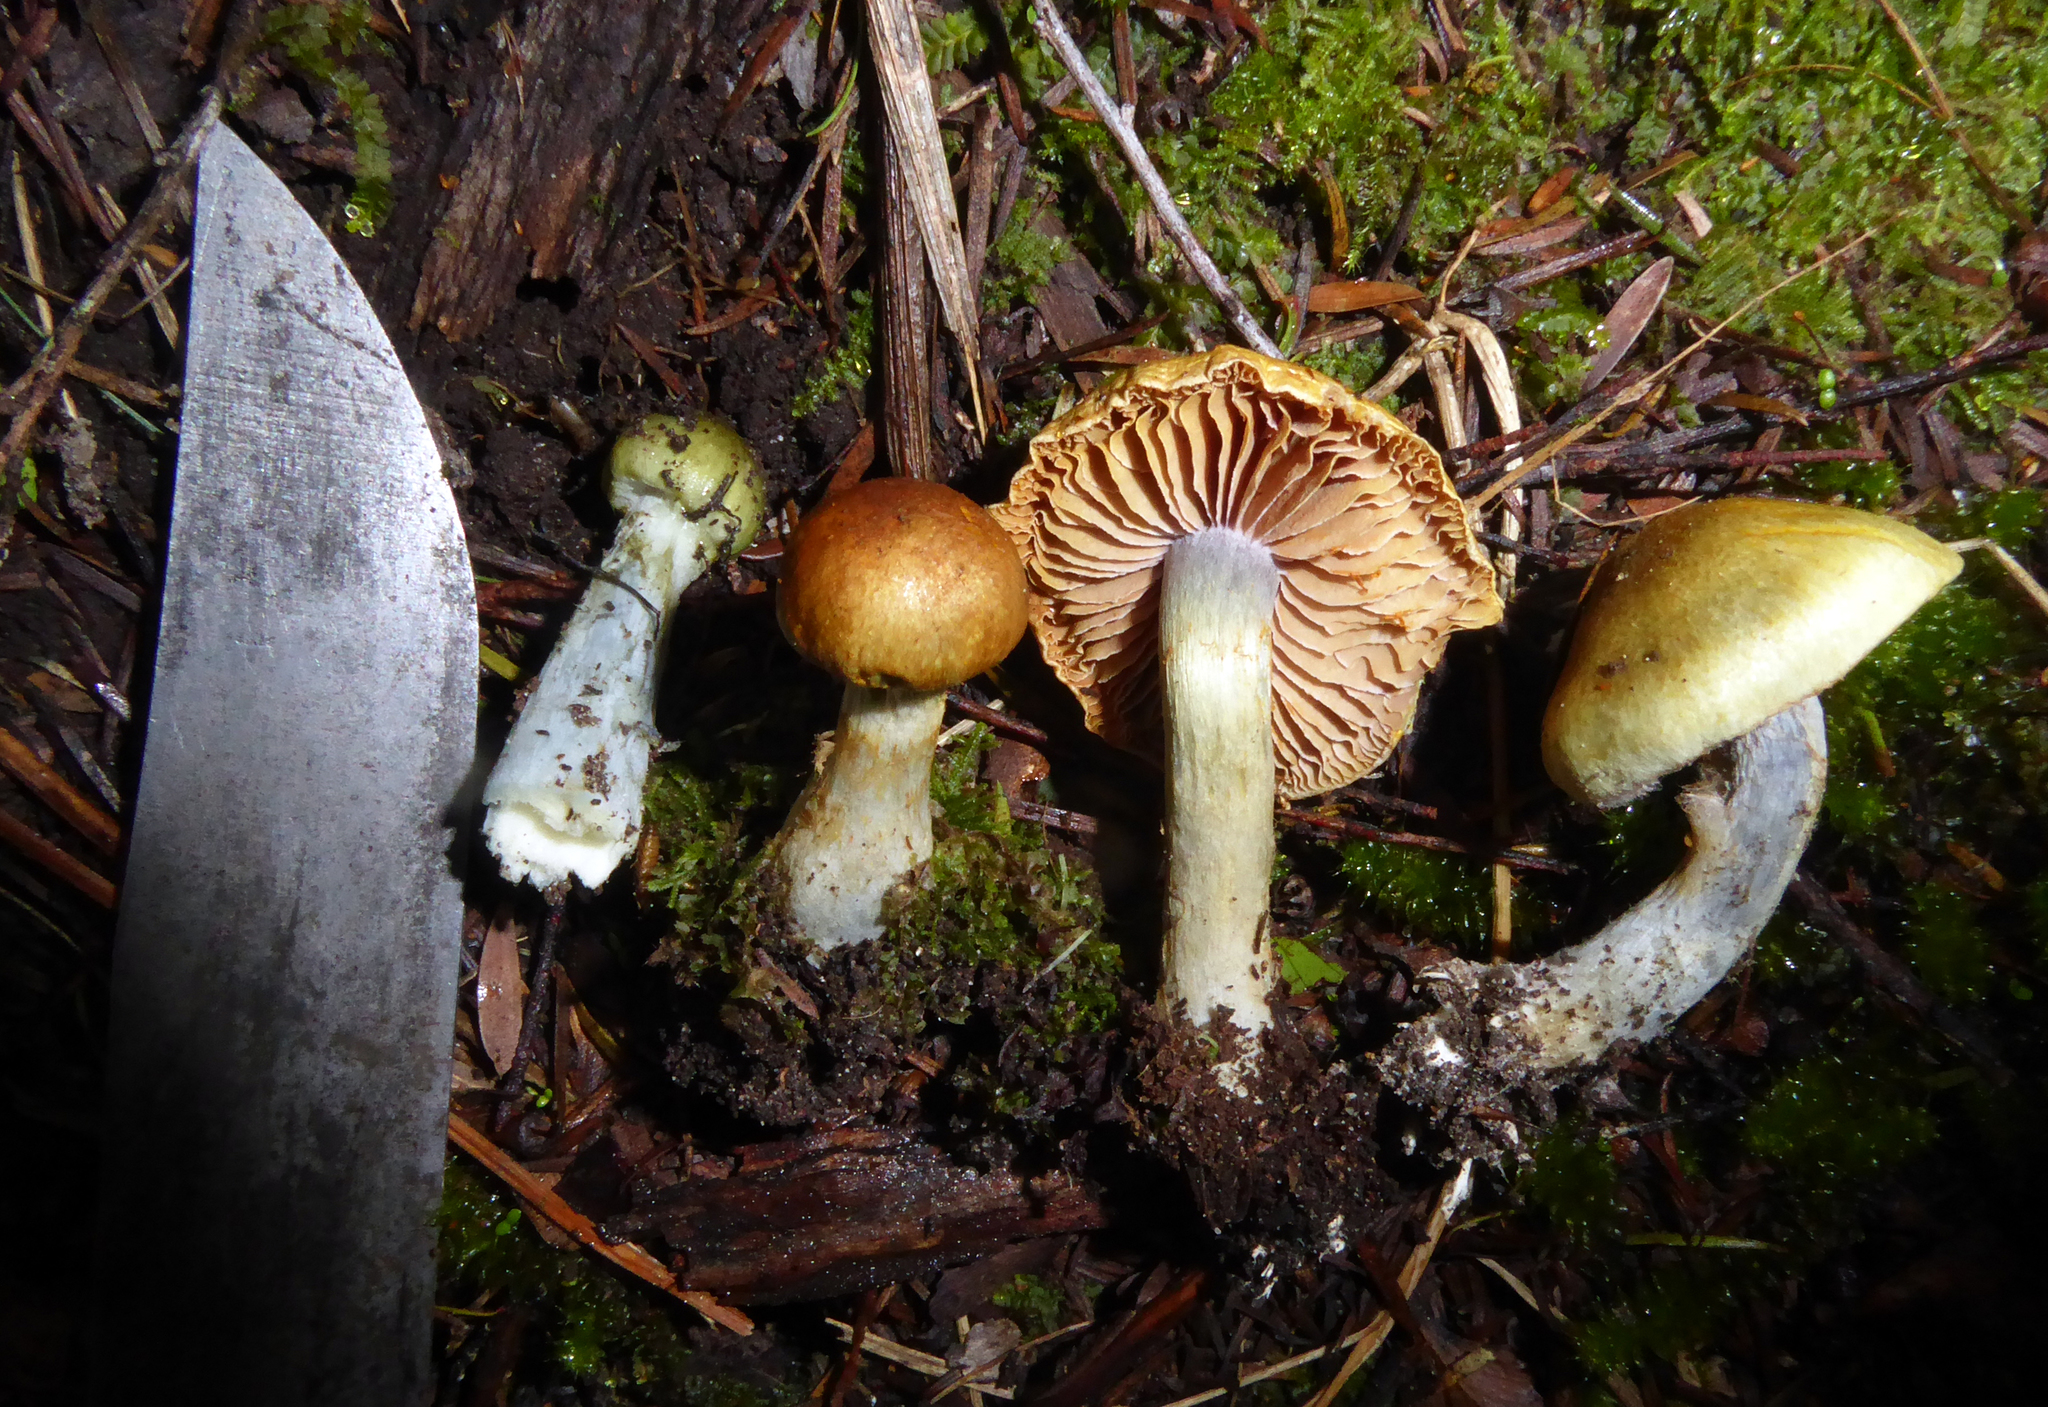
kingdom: Fungi
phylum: Basidiomycota
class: Agaricomycetes
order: Agaricales
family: Cortinariaceae
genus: Cortinarius
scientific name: Cortinarius calaisopus
